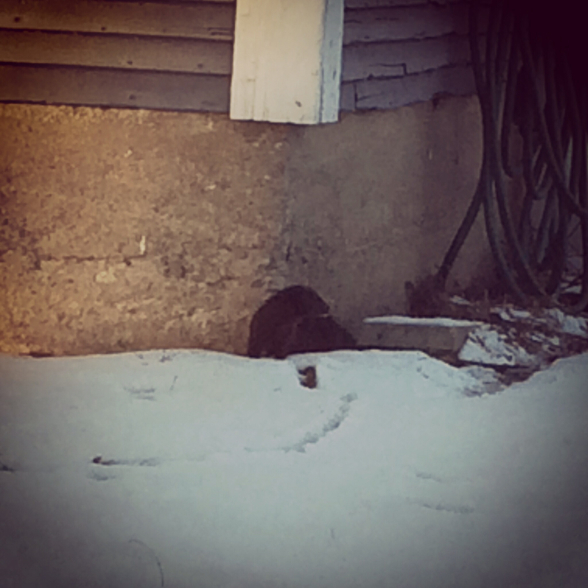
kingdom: Animalia
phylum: Chordata
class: Mammalia
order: Carnivora
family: Mustelidae
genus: Mustela
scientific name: Mustela
